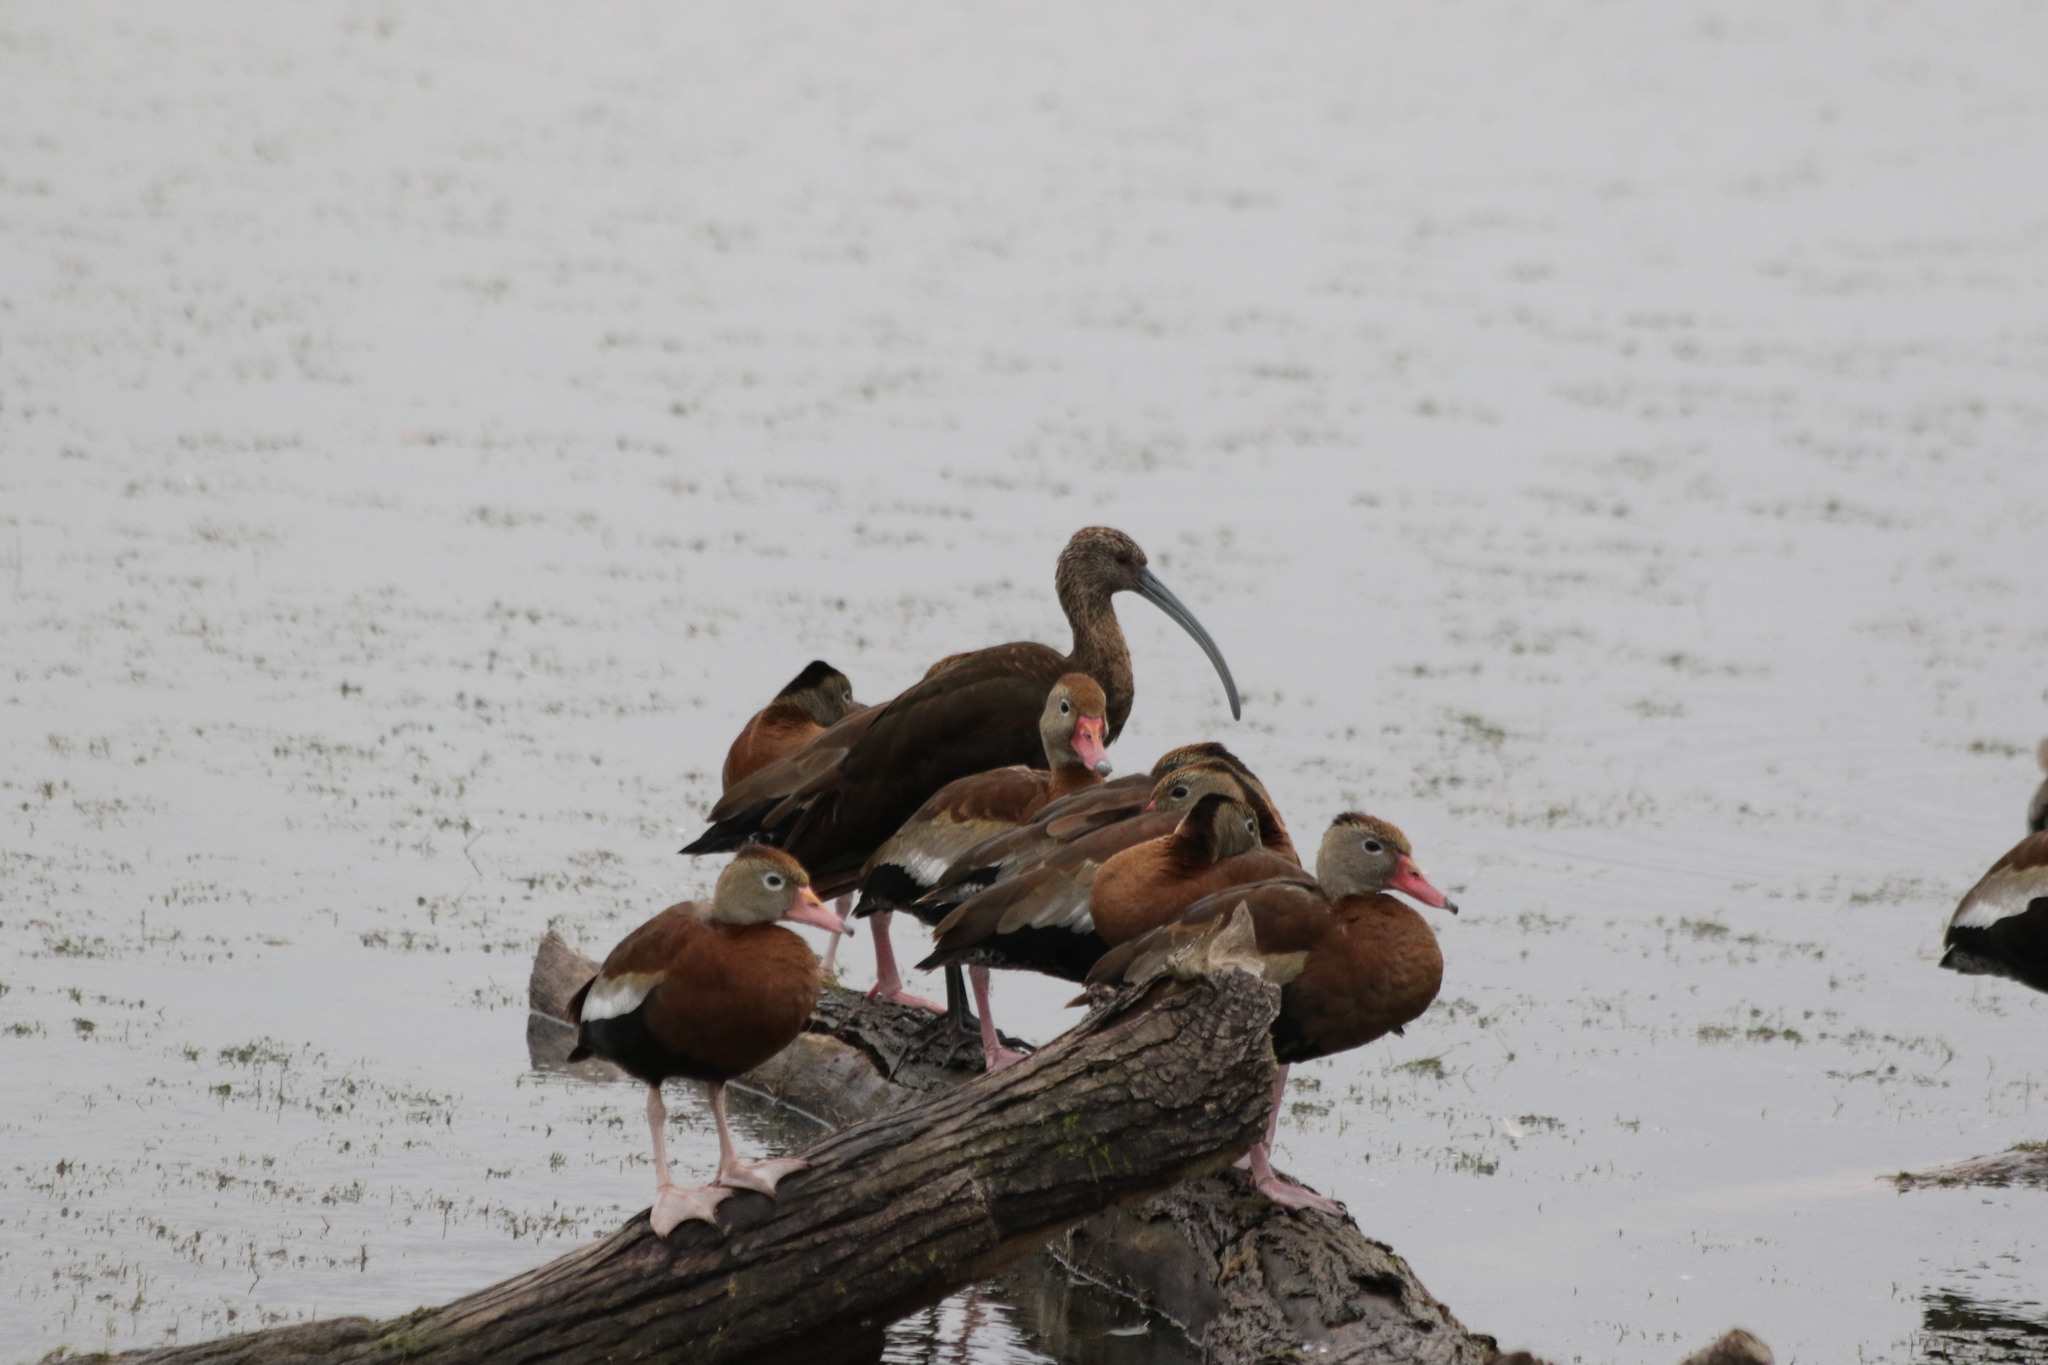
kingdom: Animalia
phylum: Chordata
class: Aves
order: Pelecaniformes
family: Threskiornithidae
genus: Plegadis
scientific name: Plegadis chihi
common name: White-faced ibis
